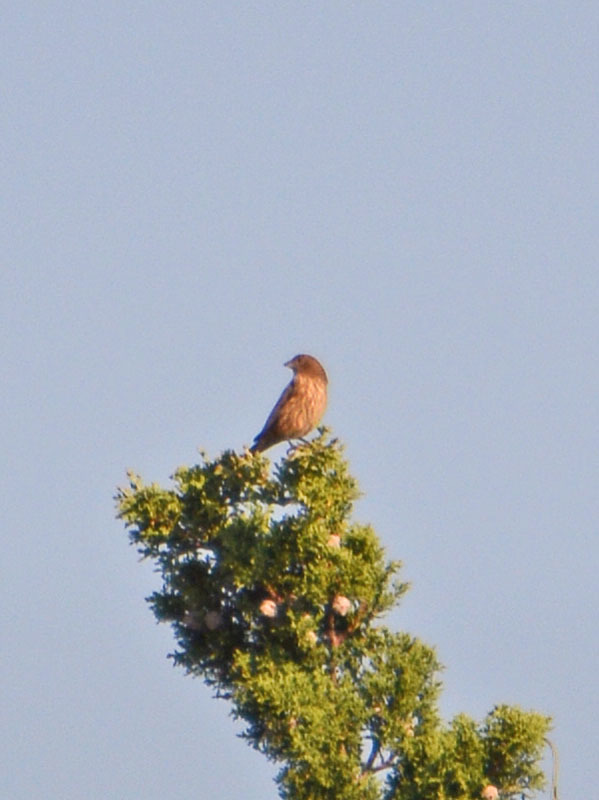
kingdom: Animalia
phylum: Chordata
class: Aves
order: Passeriformes
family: Fringillidae
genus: Haemorhous
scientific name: Haemorhous mexicanus
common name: House finch
